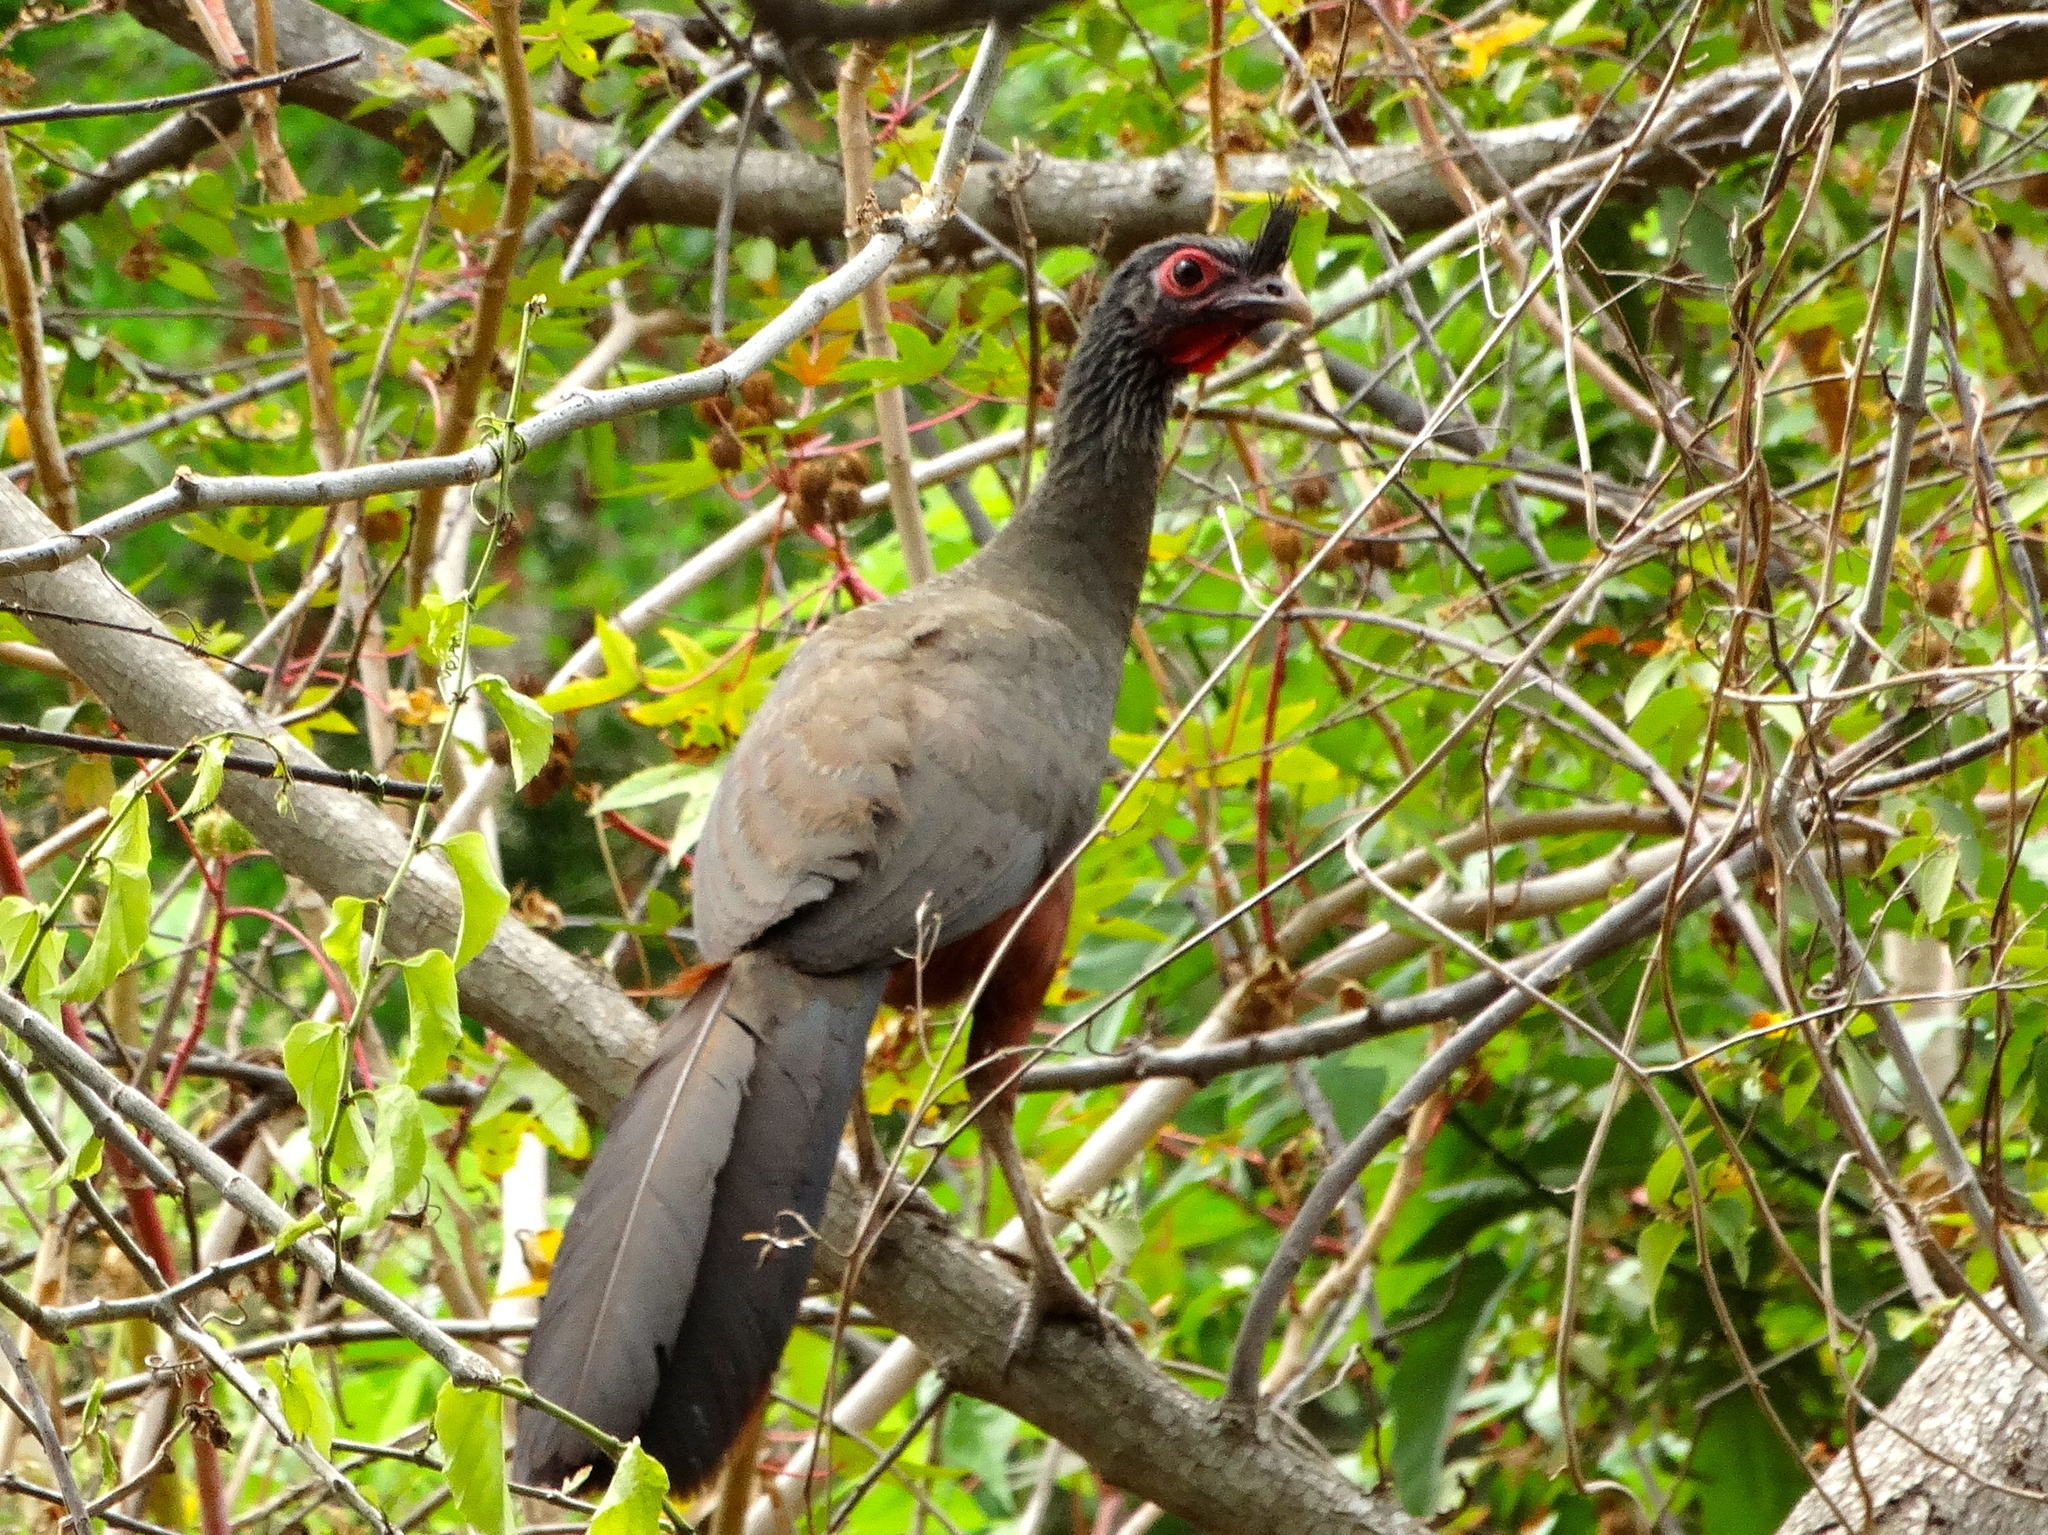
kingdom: Animalia
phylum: Chordata
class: Aves
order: Galliformes
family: Cracidae
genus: Ortalis
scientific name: Ortalis wagleri
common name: Rufous-bellied chachalaca
